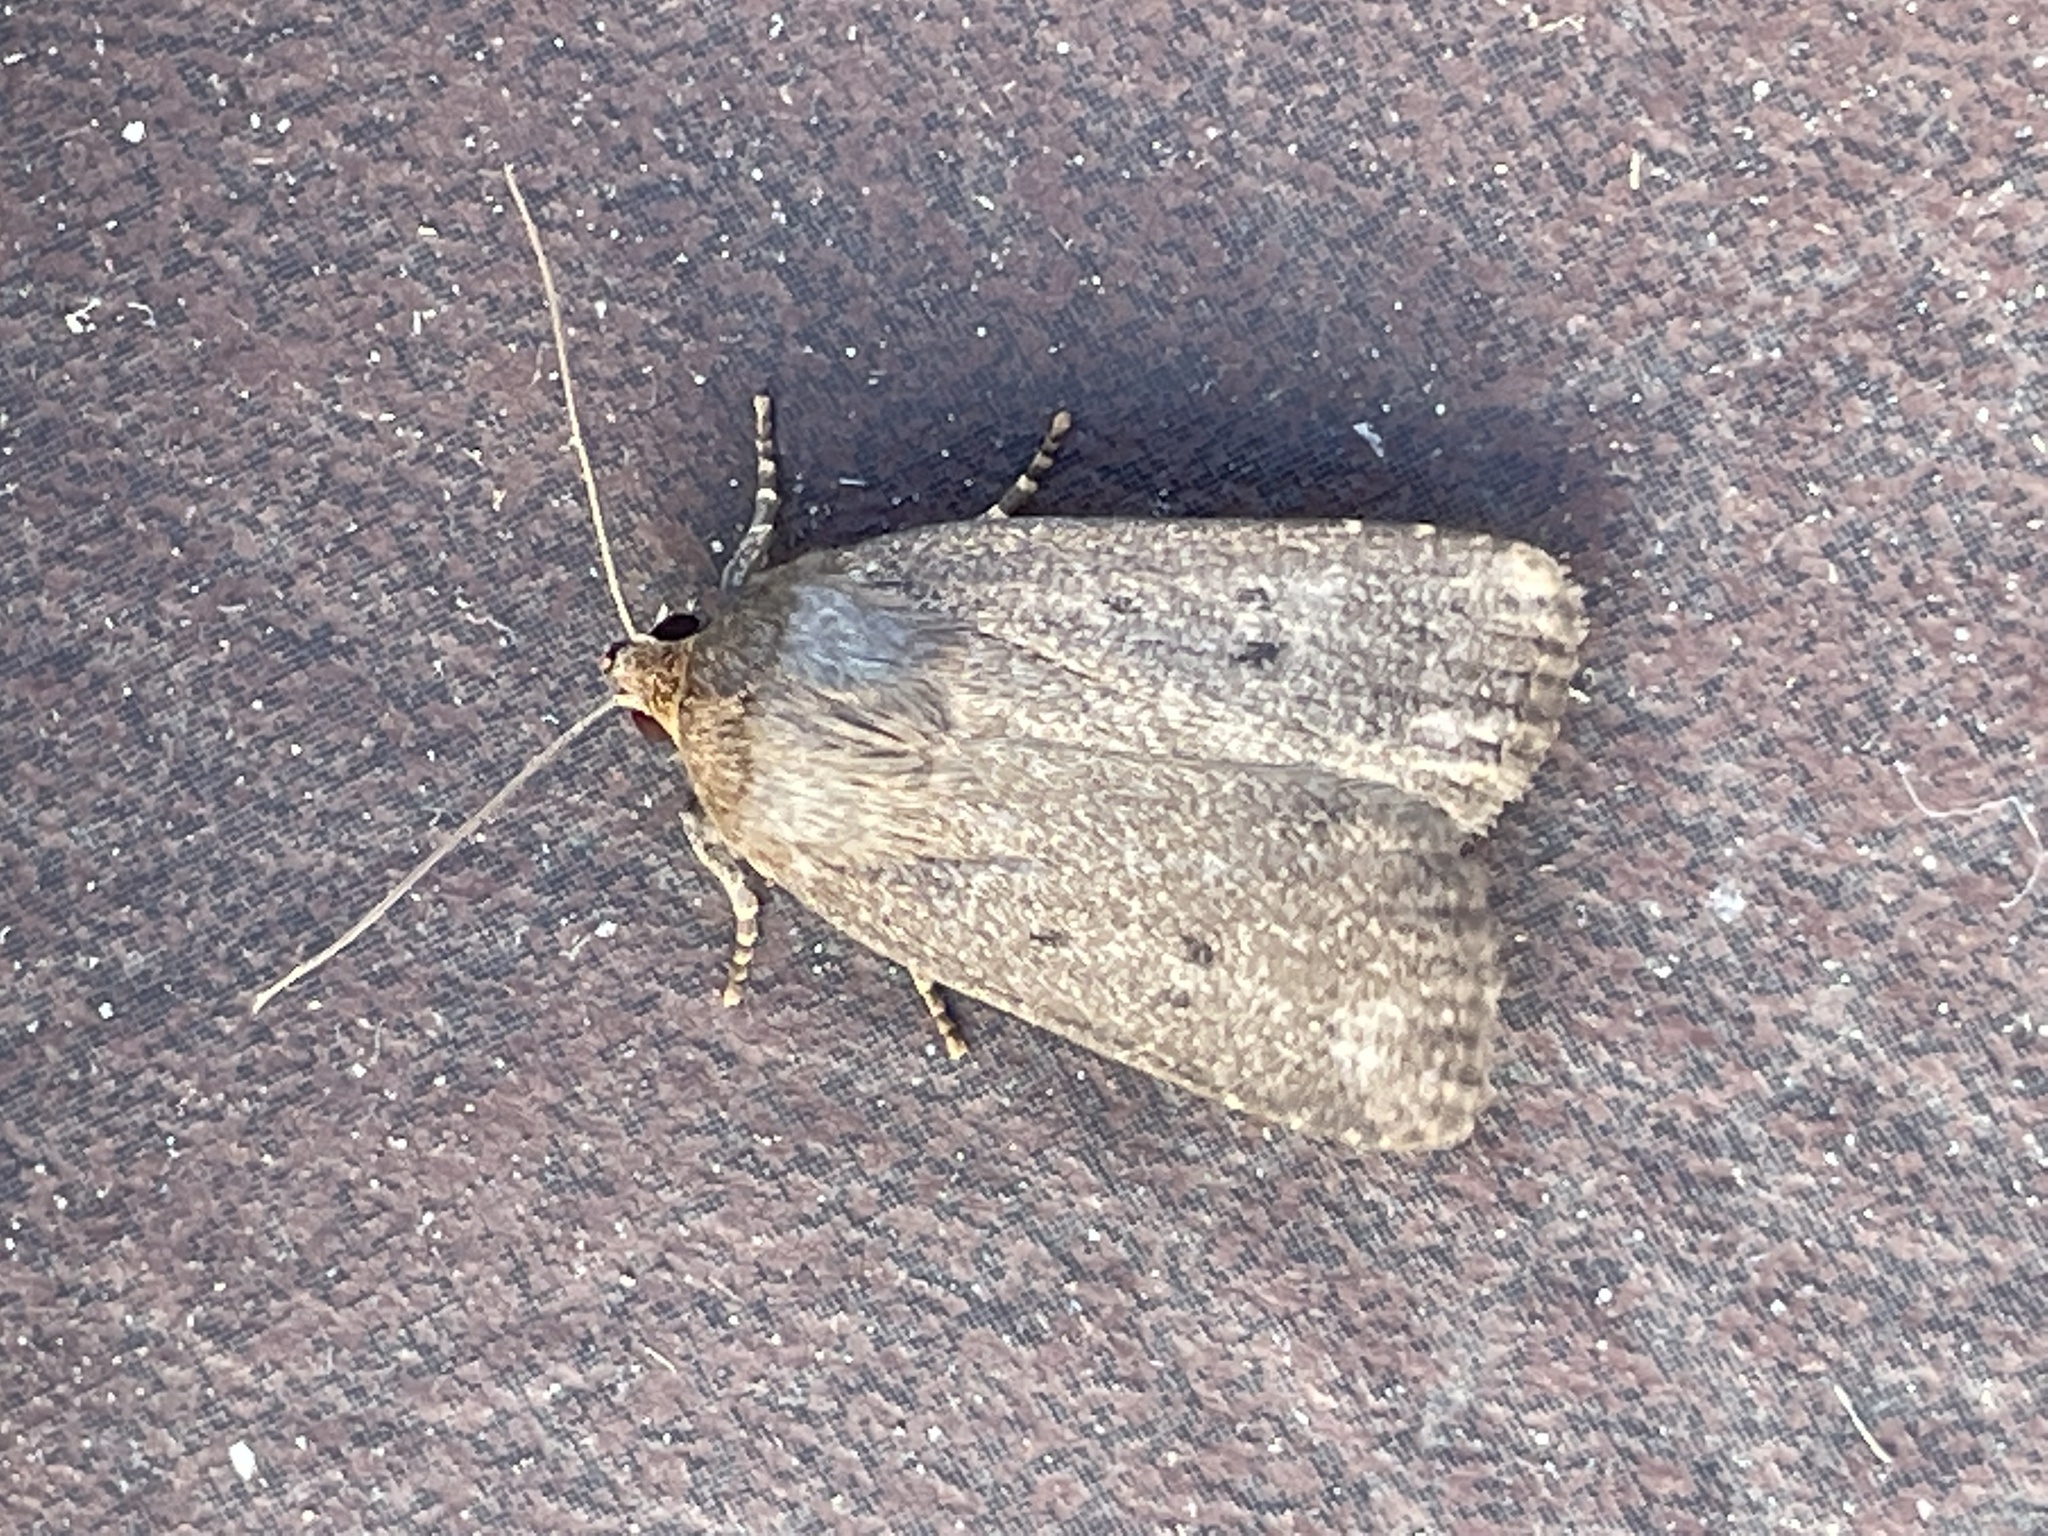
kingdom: Animalia
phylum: Arthropoda
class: Insecta
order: Lepidoptera
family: Noctuidae
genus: Amphipyra
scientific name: Amphipyra tragopoginis
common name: Mouse moth
